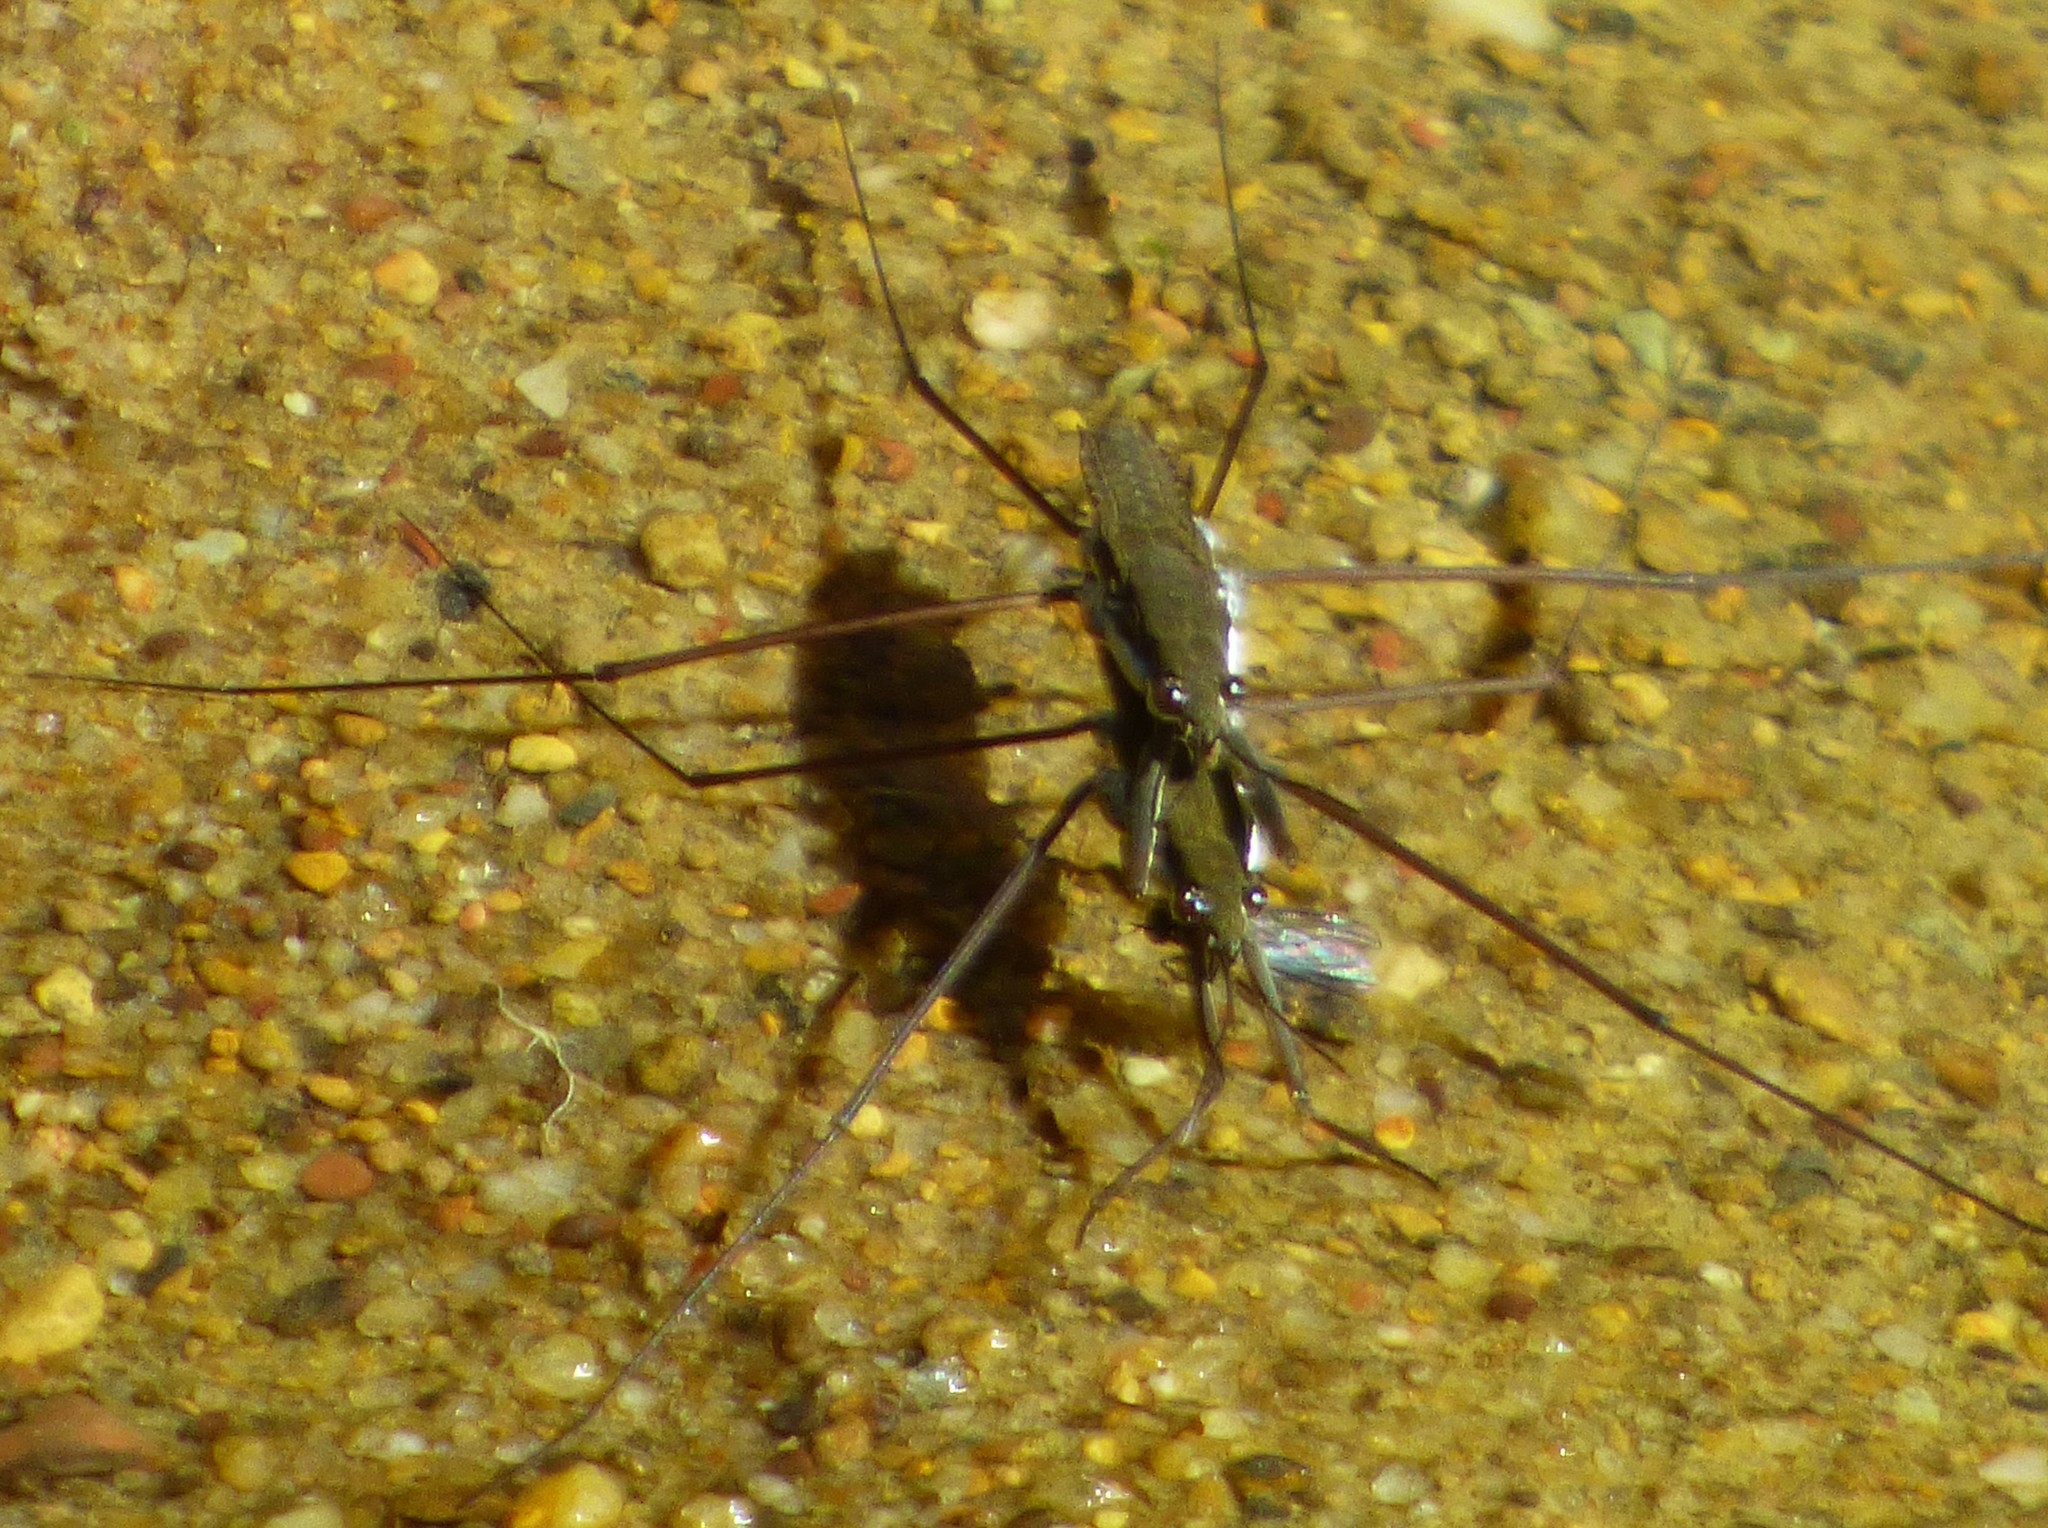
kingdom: Animalia
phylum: Arthropoda
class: Insecta
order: Hemiptera
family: Gerridae
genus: Aquarius
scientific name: Aquarius
